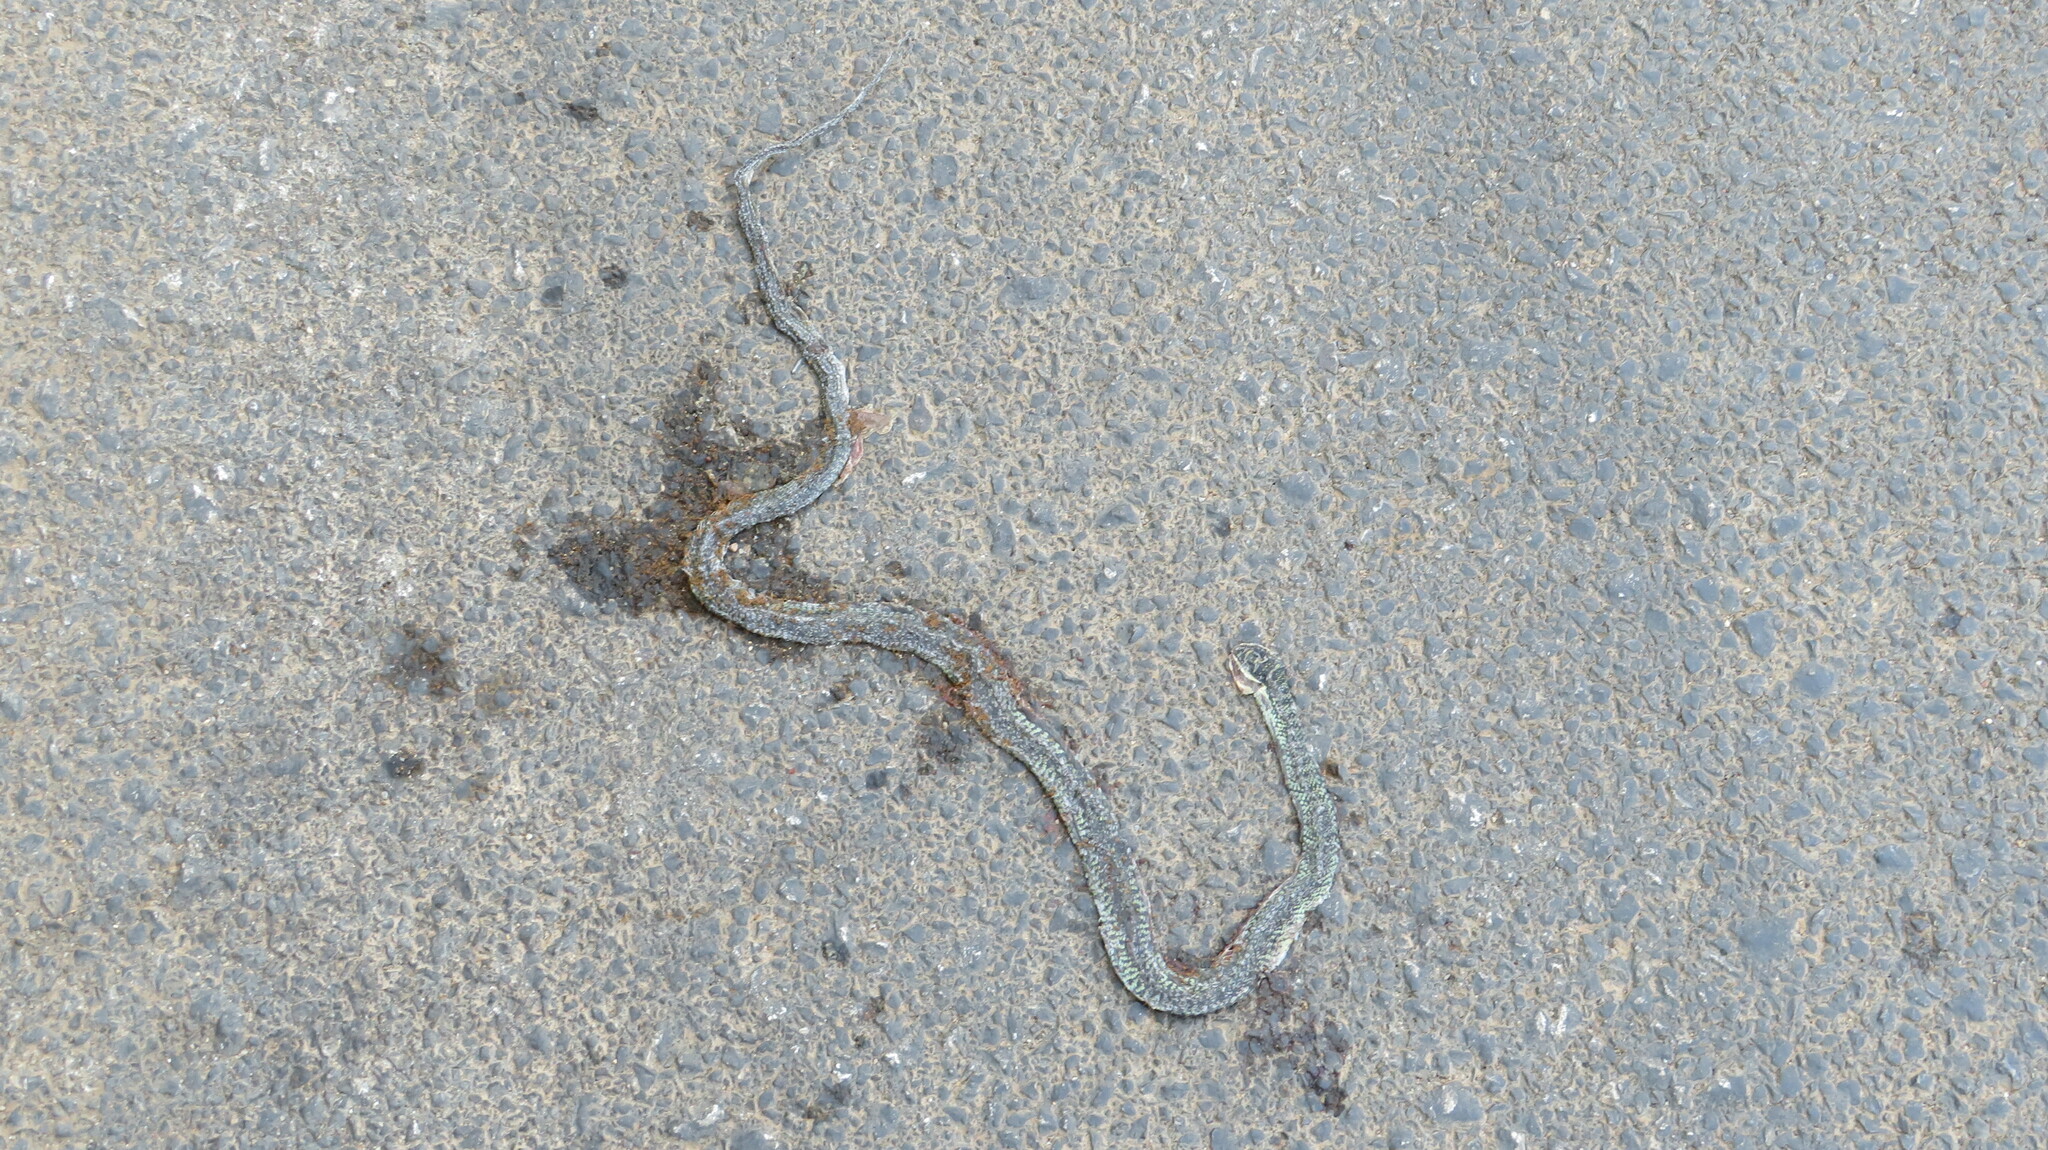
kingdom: Animalia
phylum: Chordata
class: Squamata
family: Colubridae
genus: Chrysopelea
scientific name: Chrysopelea ornata
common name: Golden flying snake
